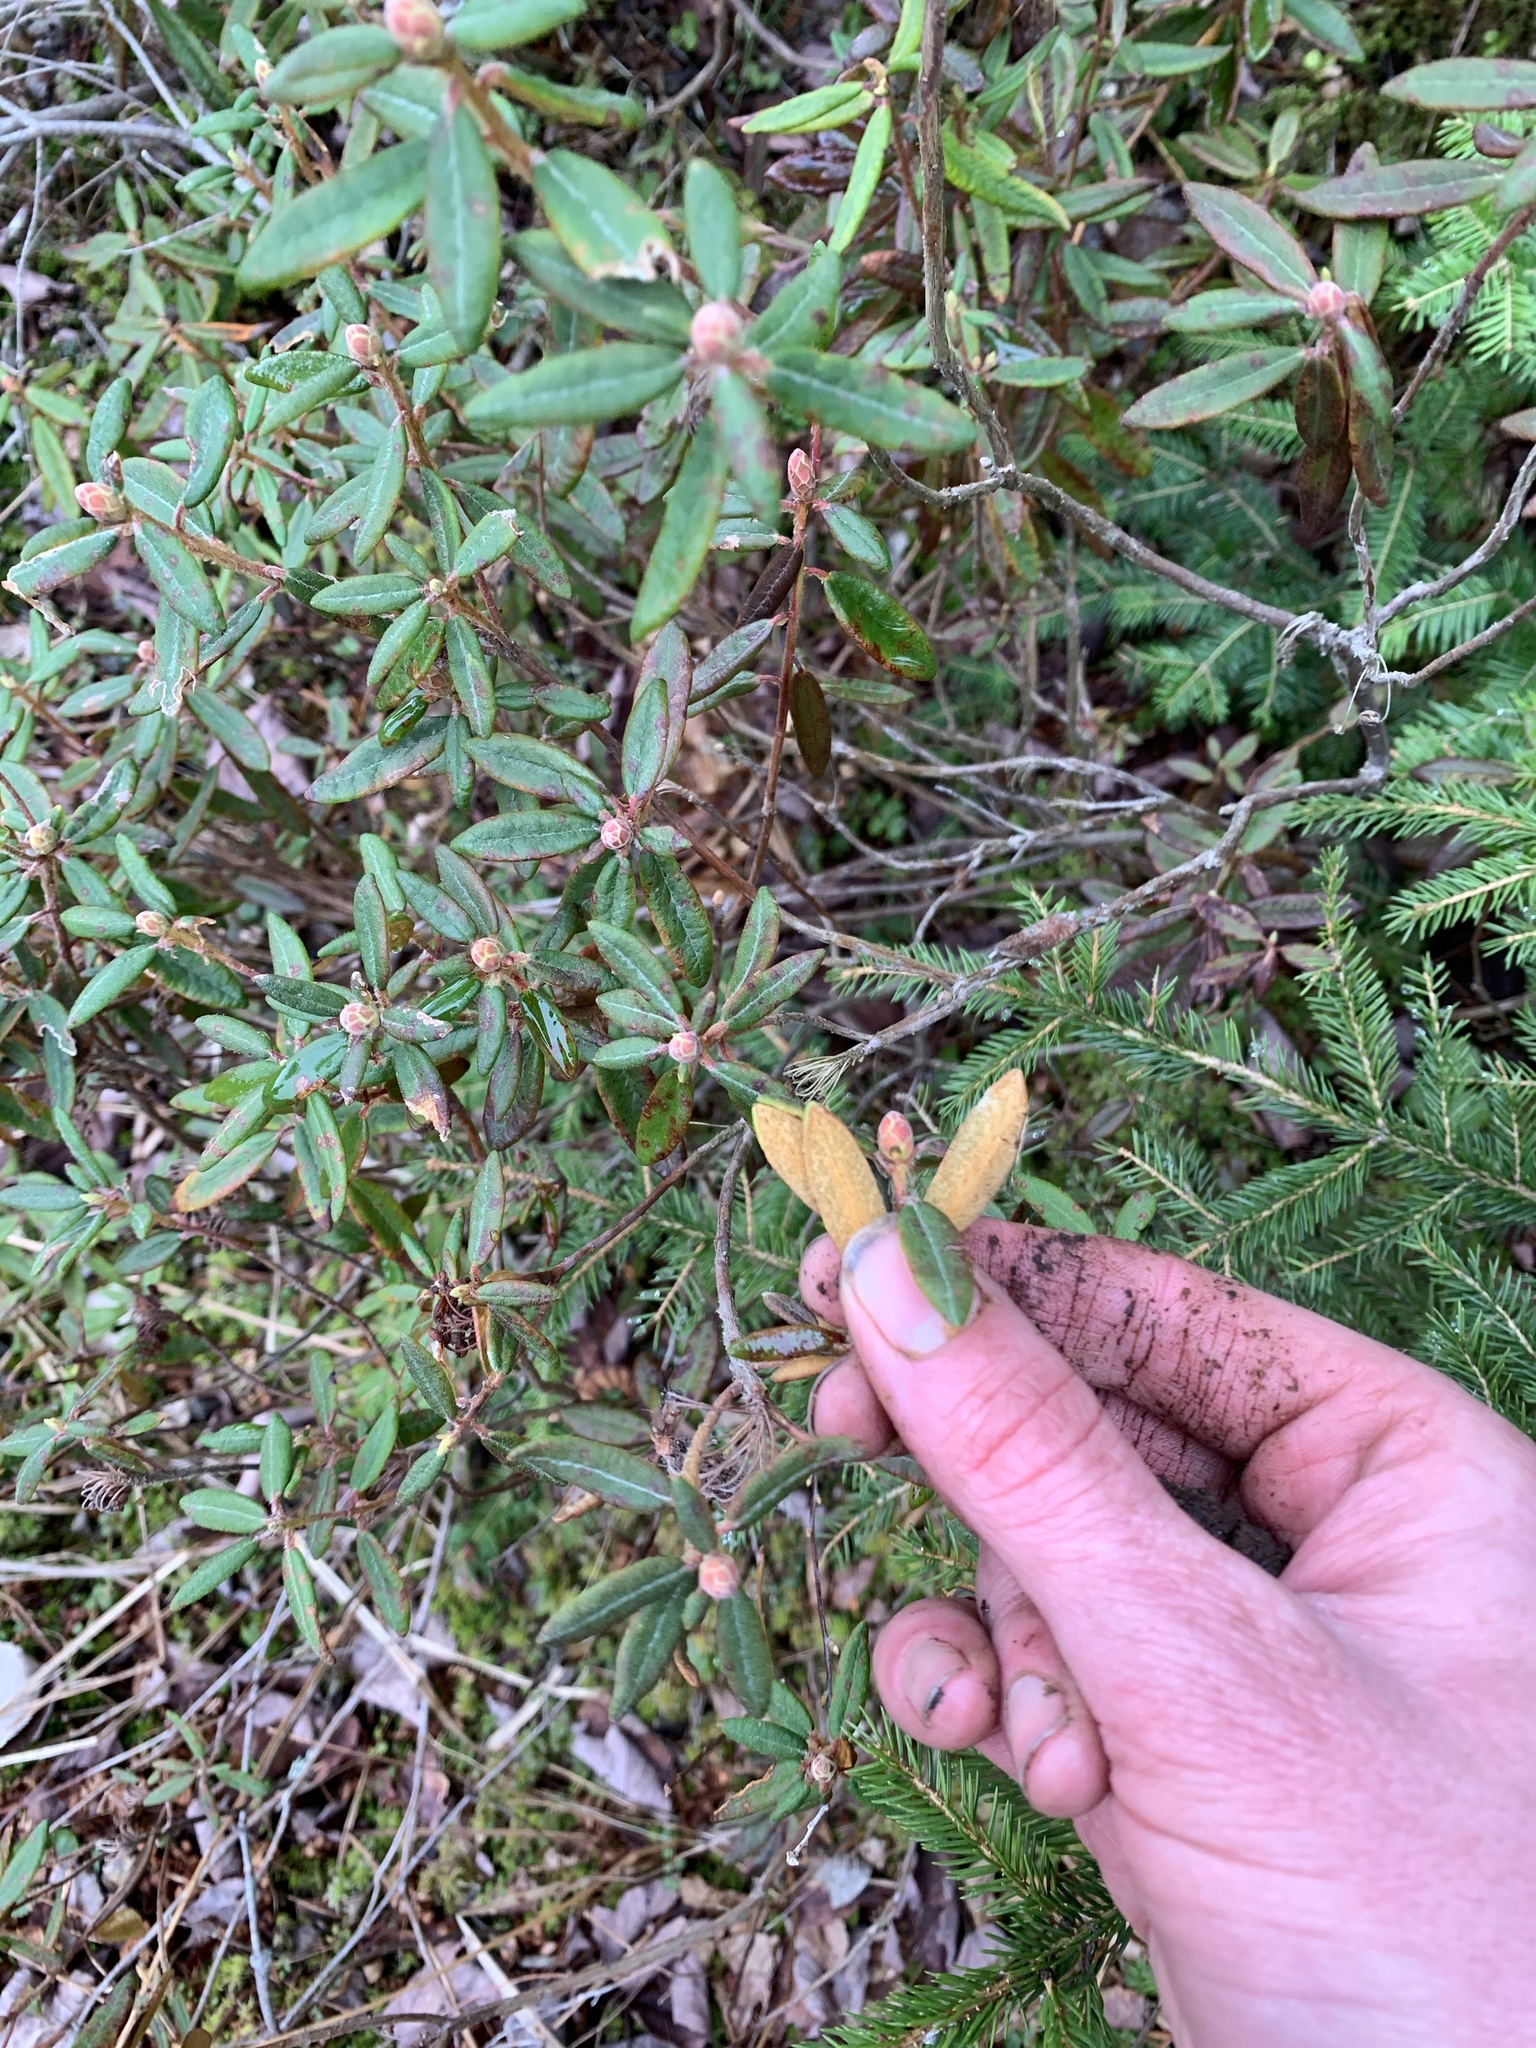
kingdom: Plantae
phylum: Tracheophyta
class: Magnoliopsida
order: Ericales
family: Ericaceae
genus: Rhododendron
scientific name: Rhododendron groenlandicum
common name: Bog labrador tea
